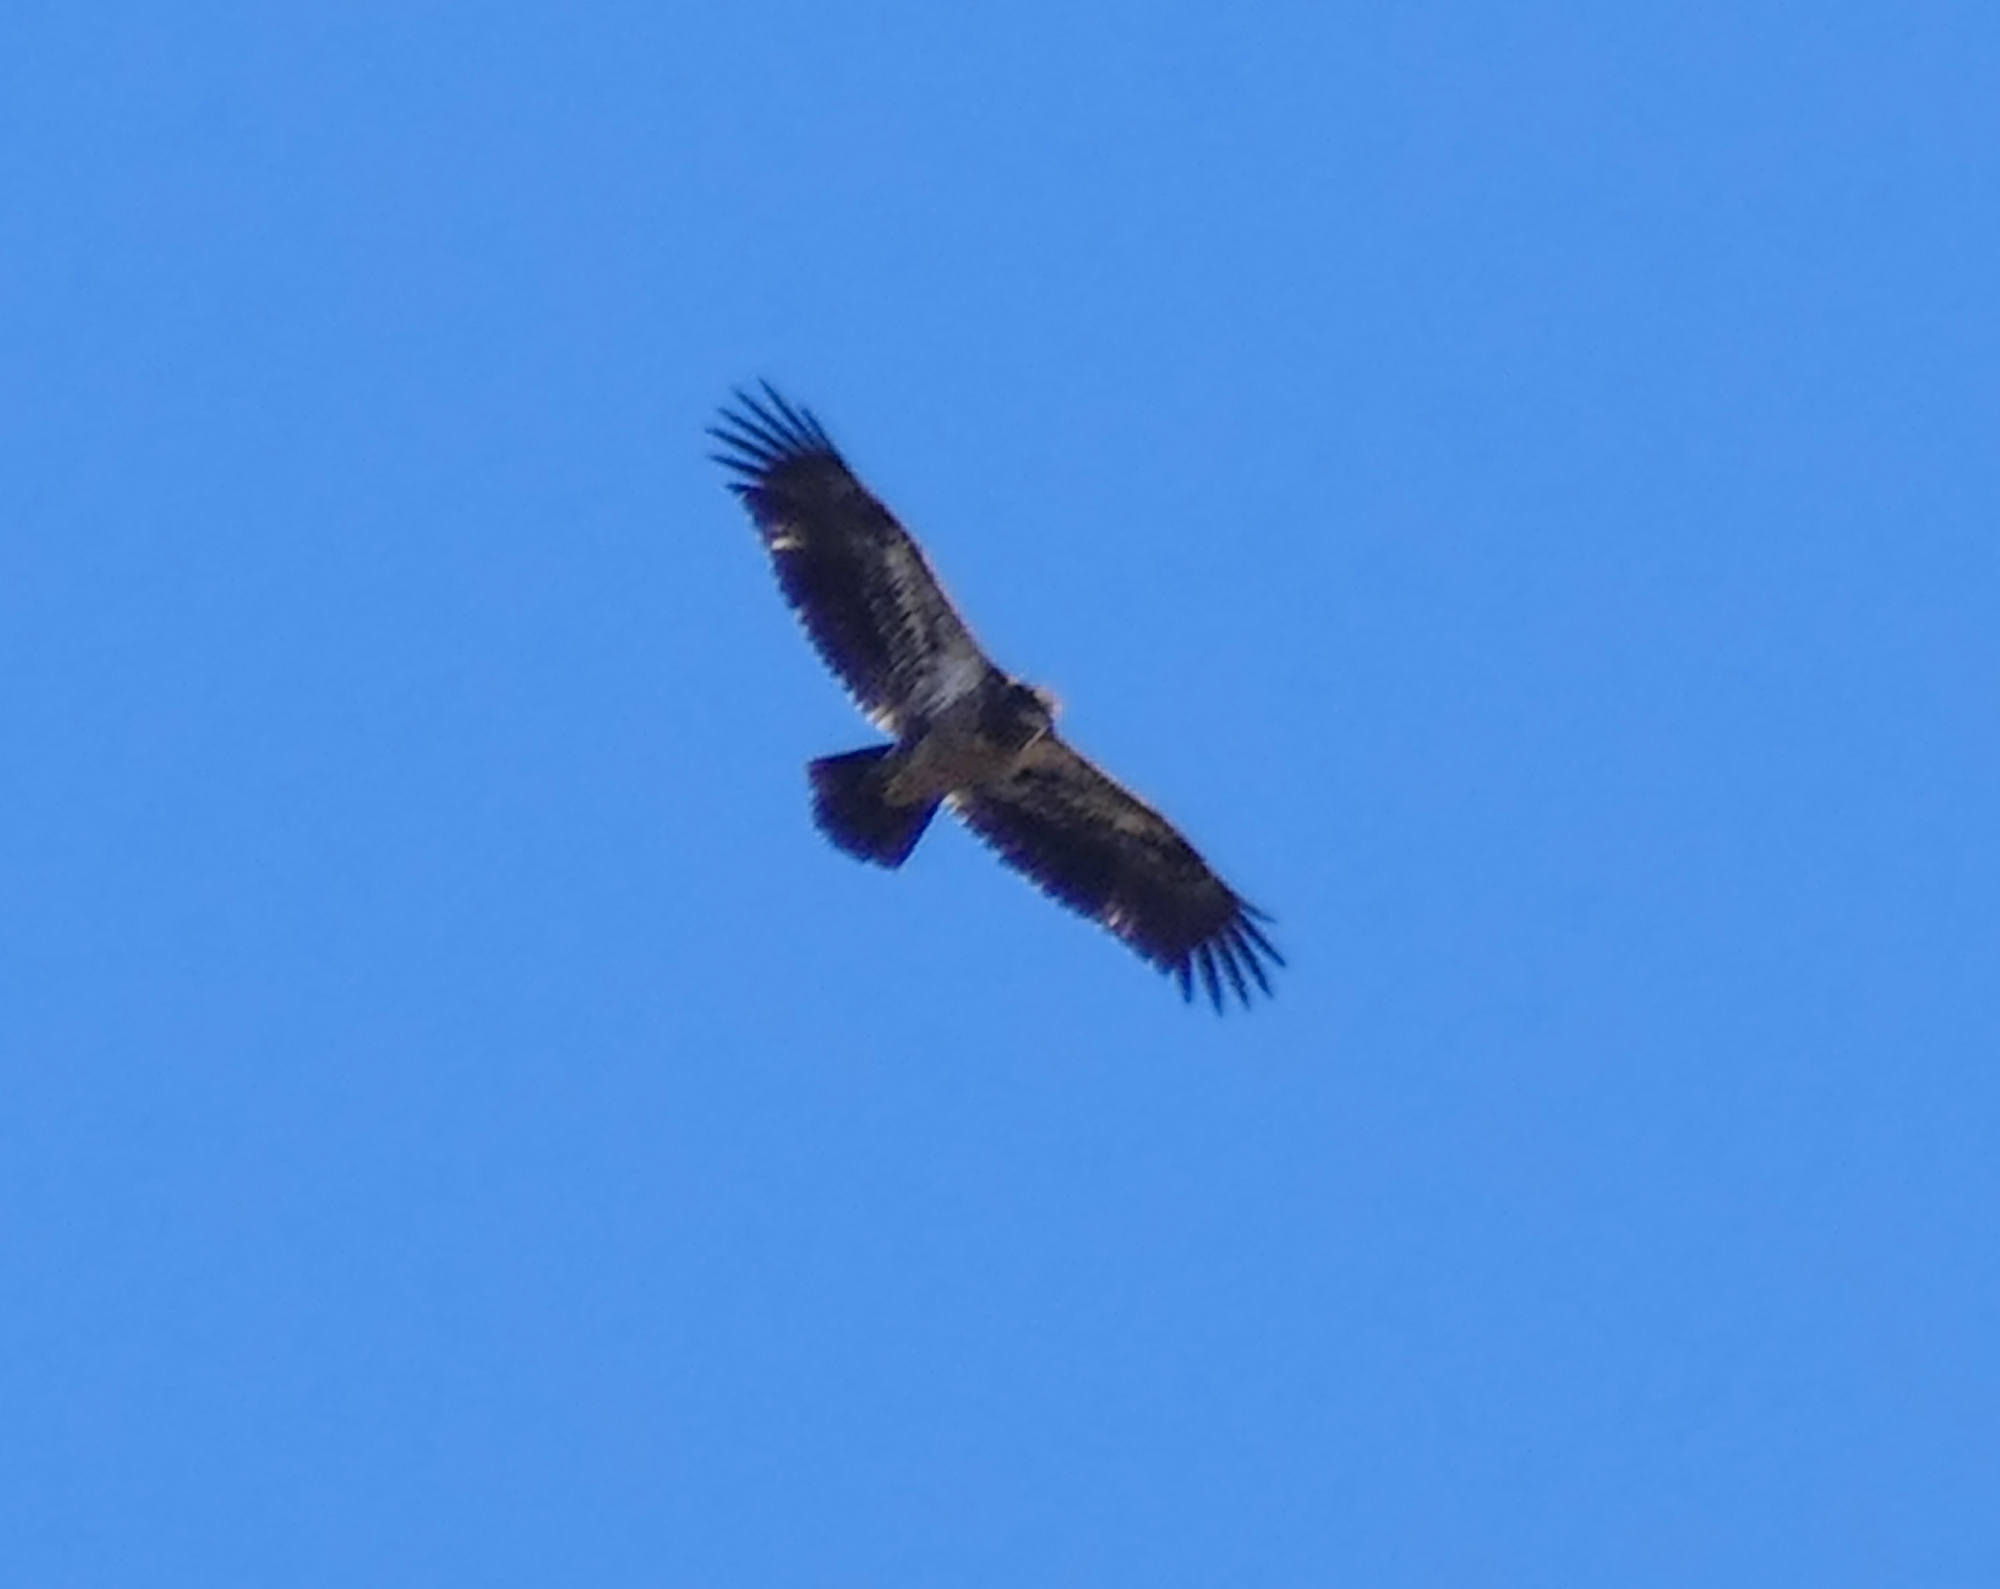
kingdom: Animalia
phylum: Chordata
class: Aves
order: Accipitriformes
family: Accipitridae
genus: Haliaeetus
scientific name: Haliaeetus leucocephalus
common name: Bald eagle
